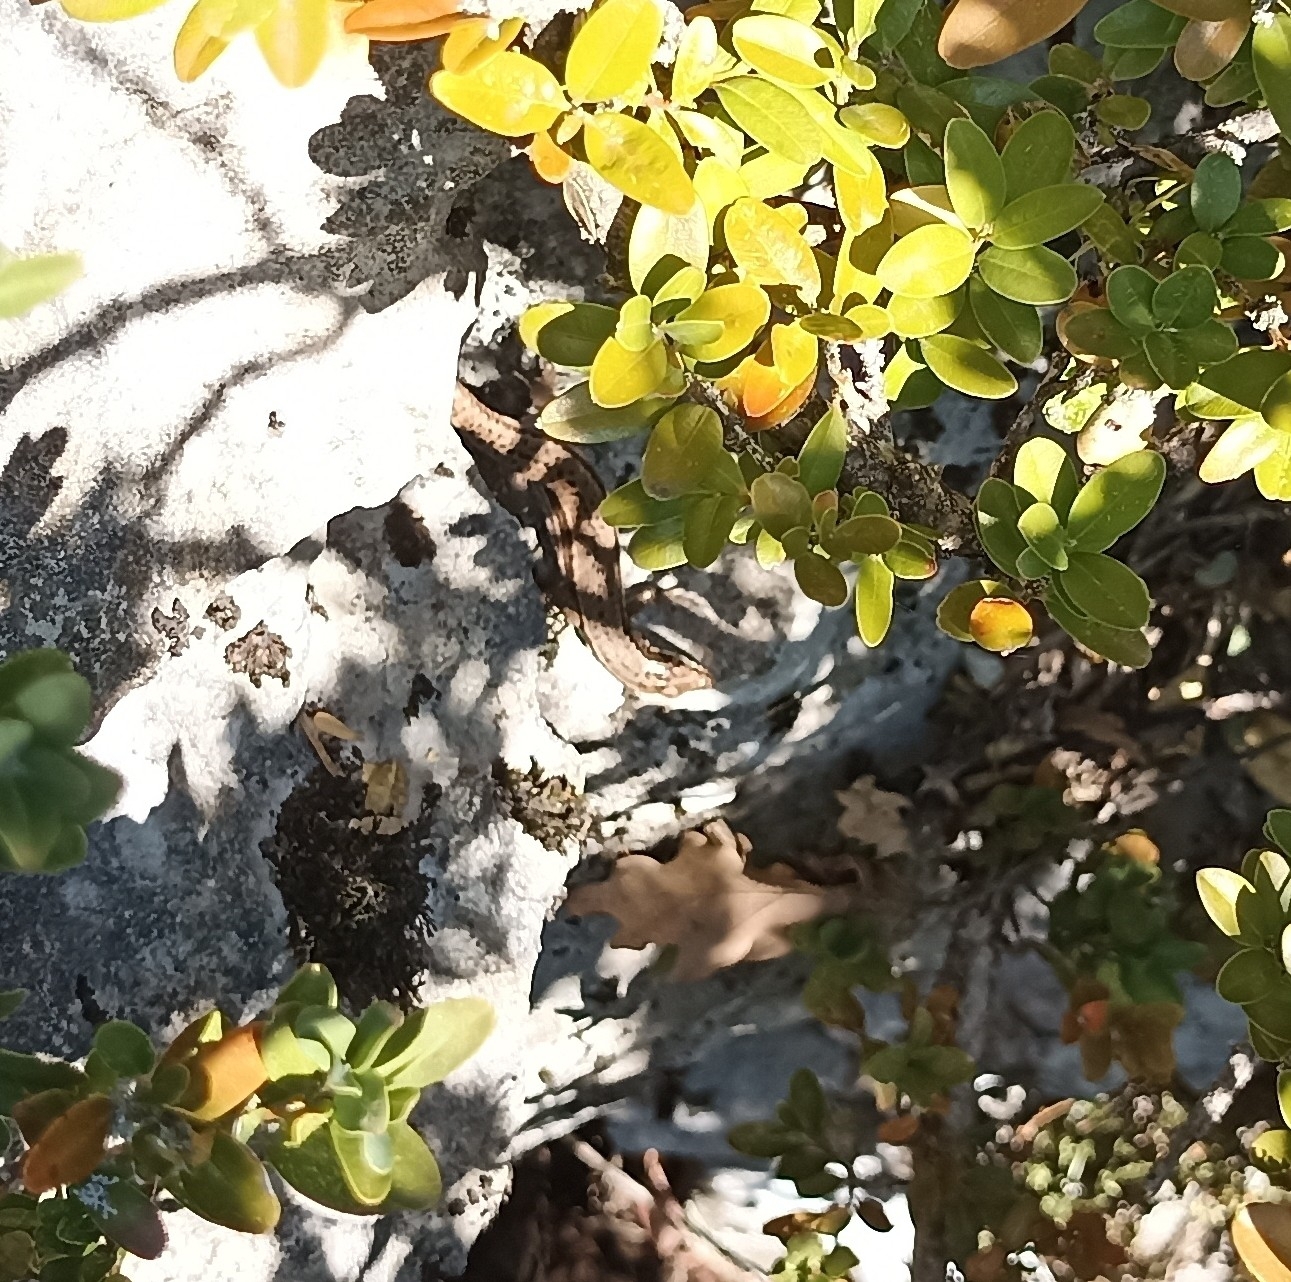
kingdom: Animalia
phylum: Chordata
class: Squamata
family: Lacertidae
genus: Podarcis
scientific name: Podarcis muralis
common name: Common wall lizard
